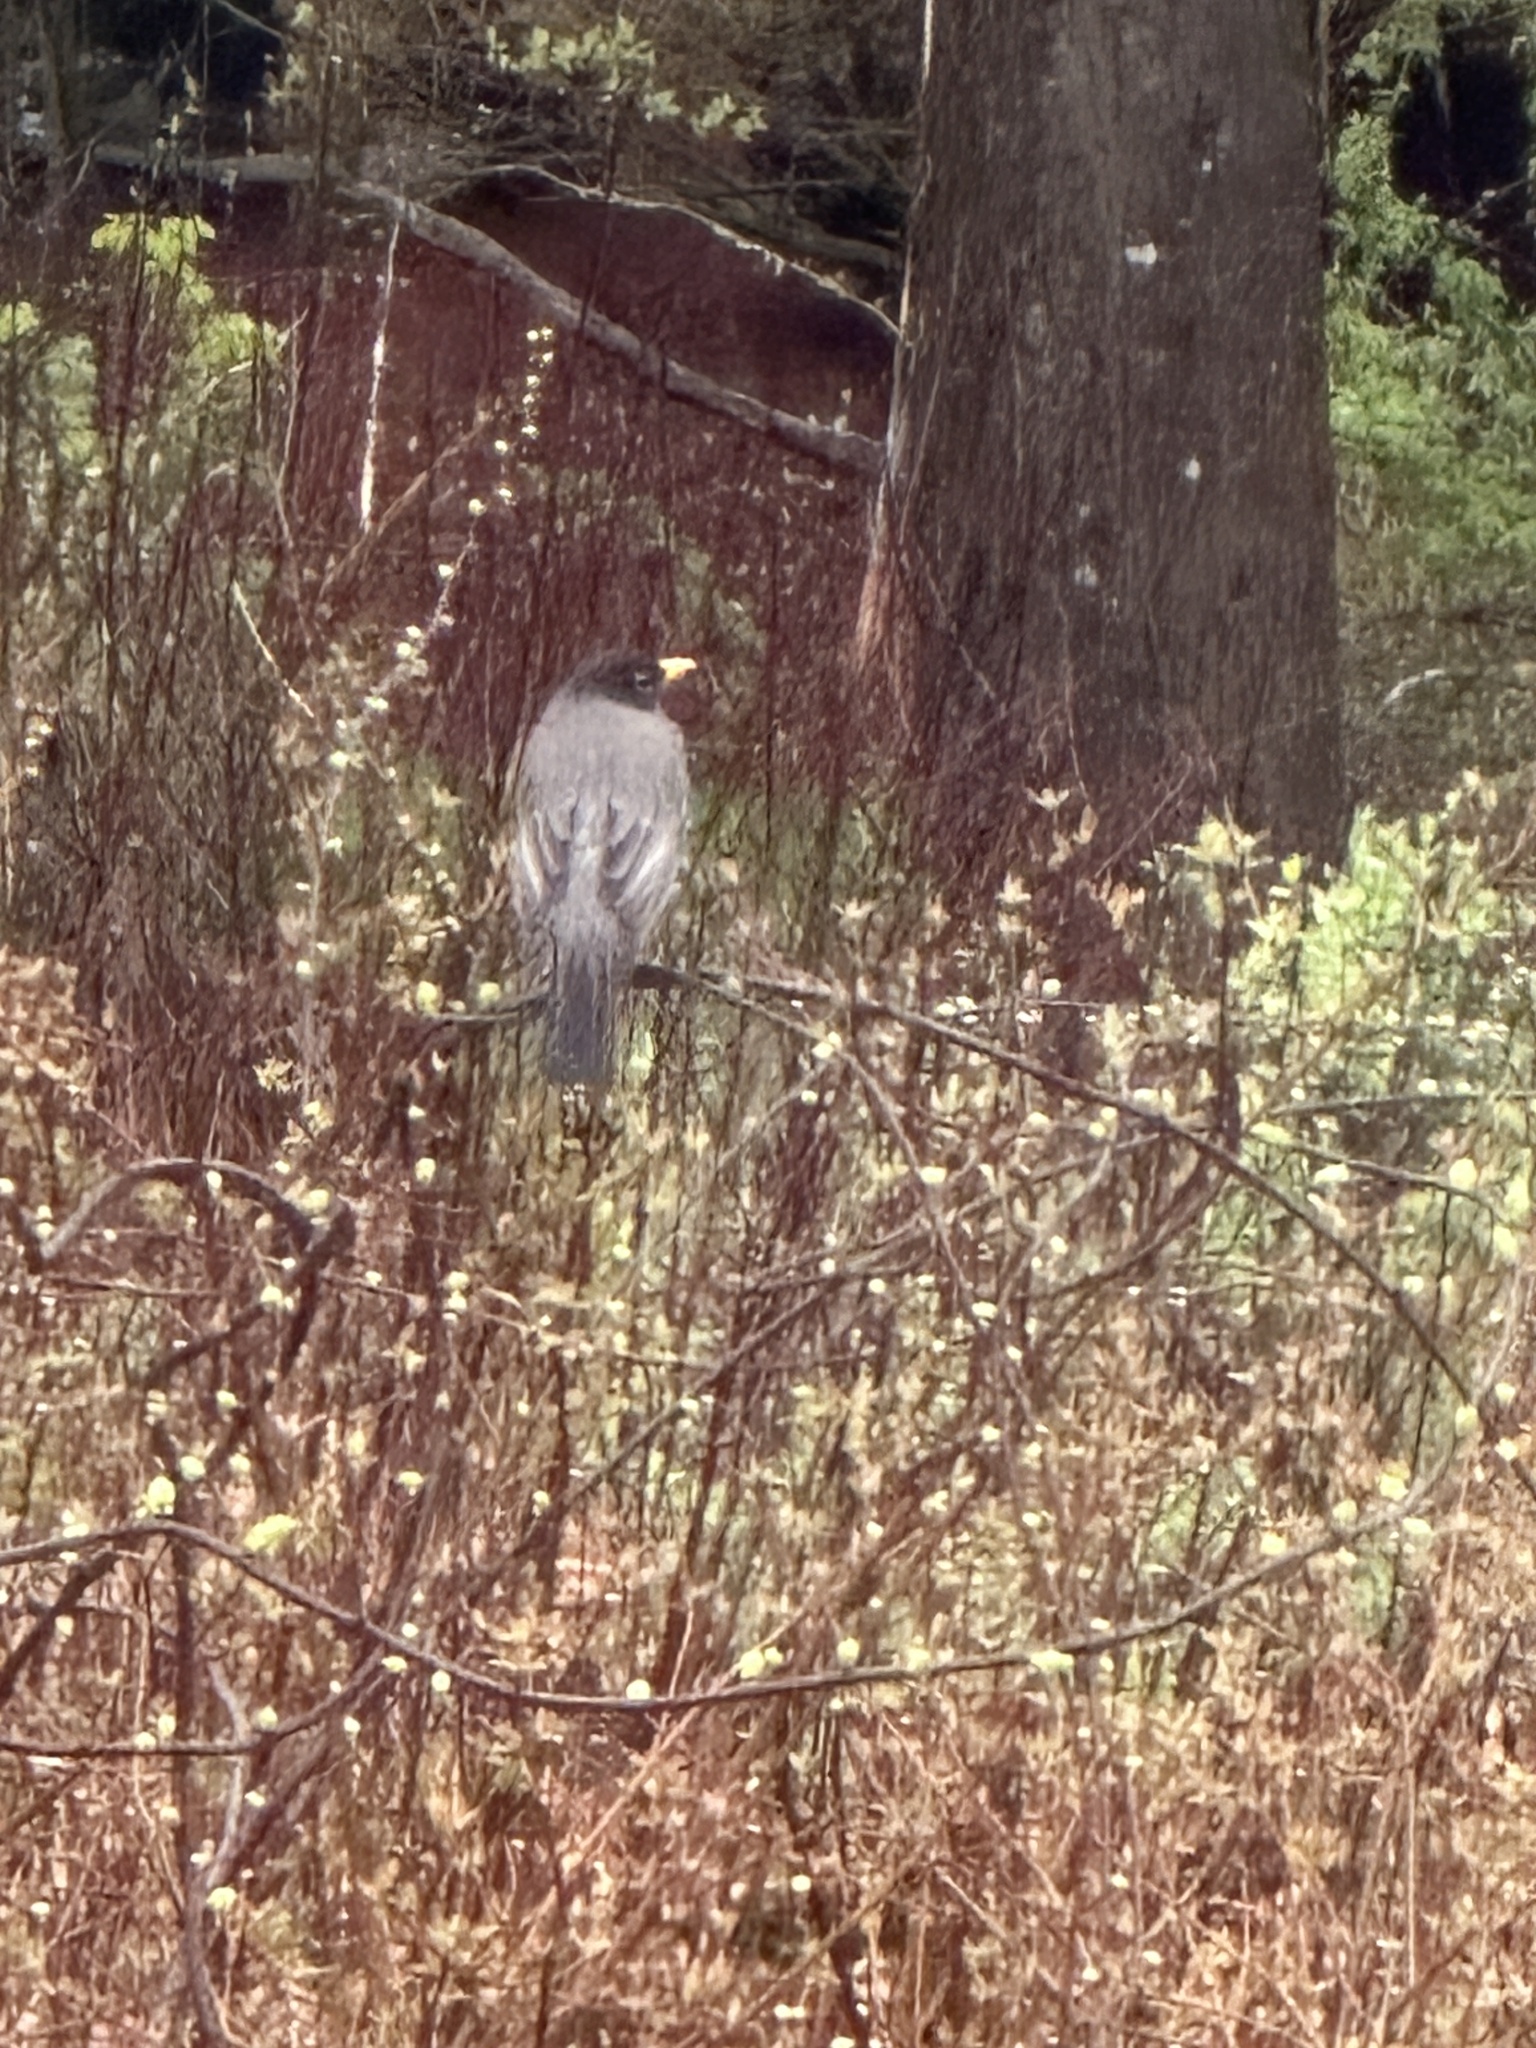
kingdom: Animalia
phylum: Chordata
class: Aves
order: Passeriformes
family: Turdidae
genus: Turdus
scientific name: Turdus migratorius
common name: American robin
